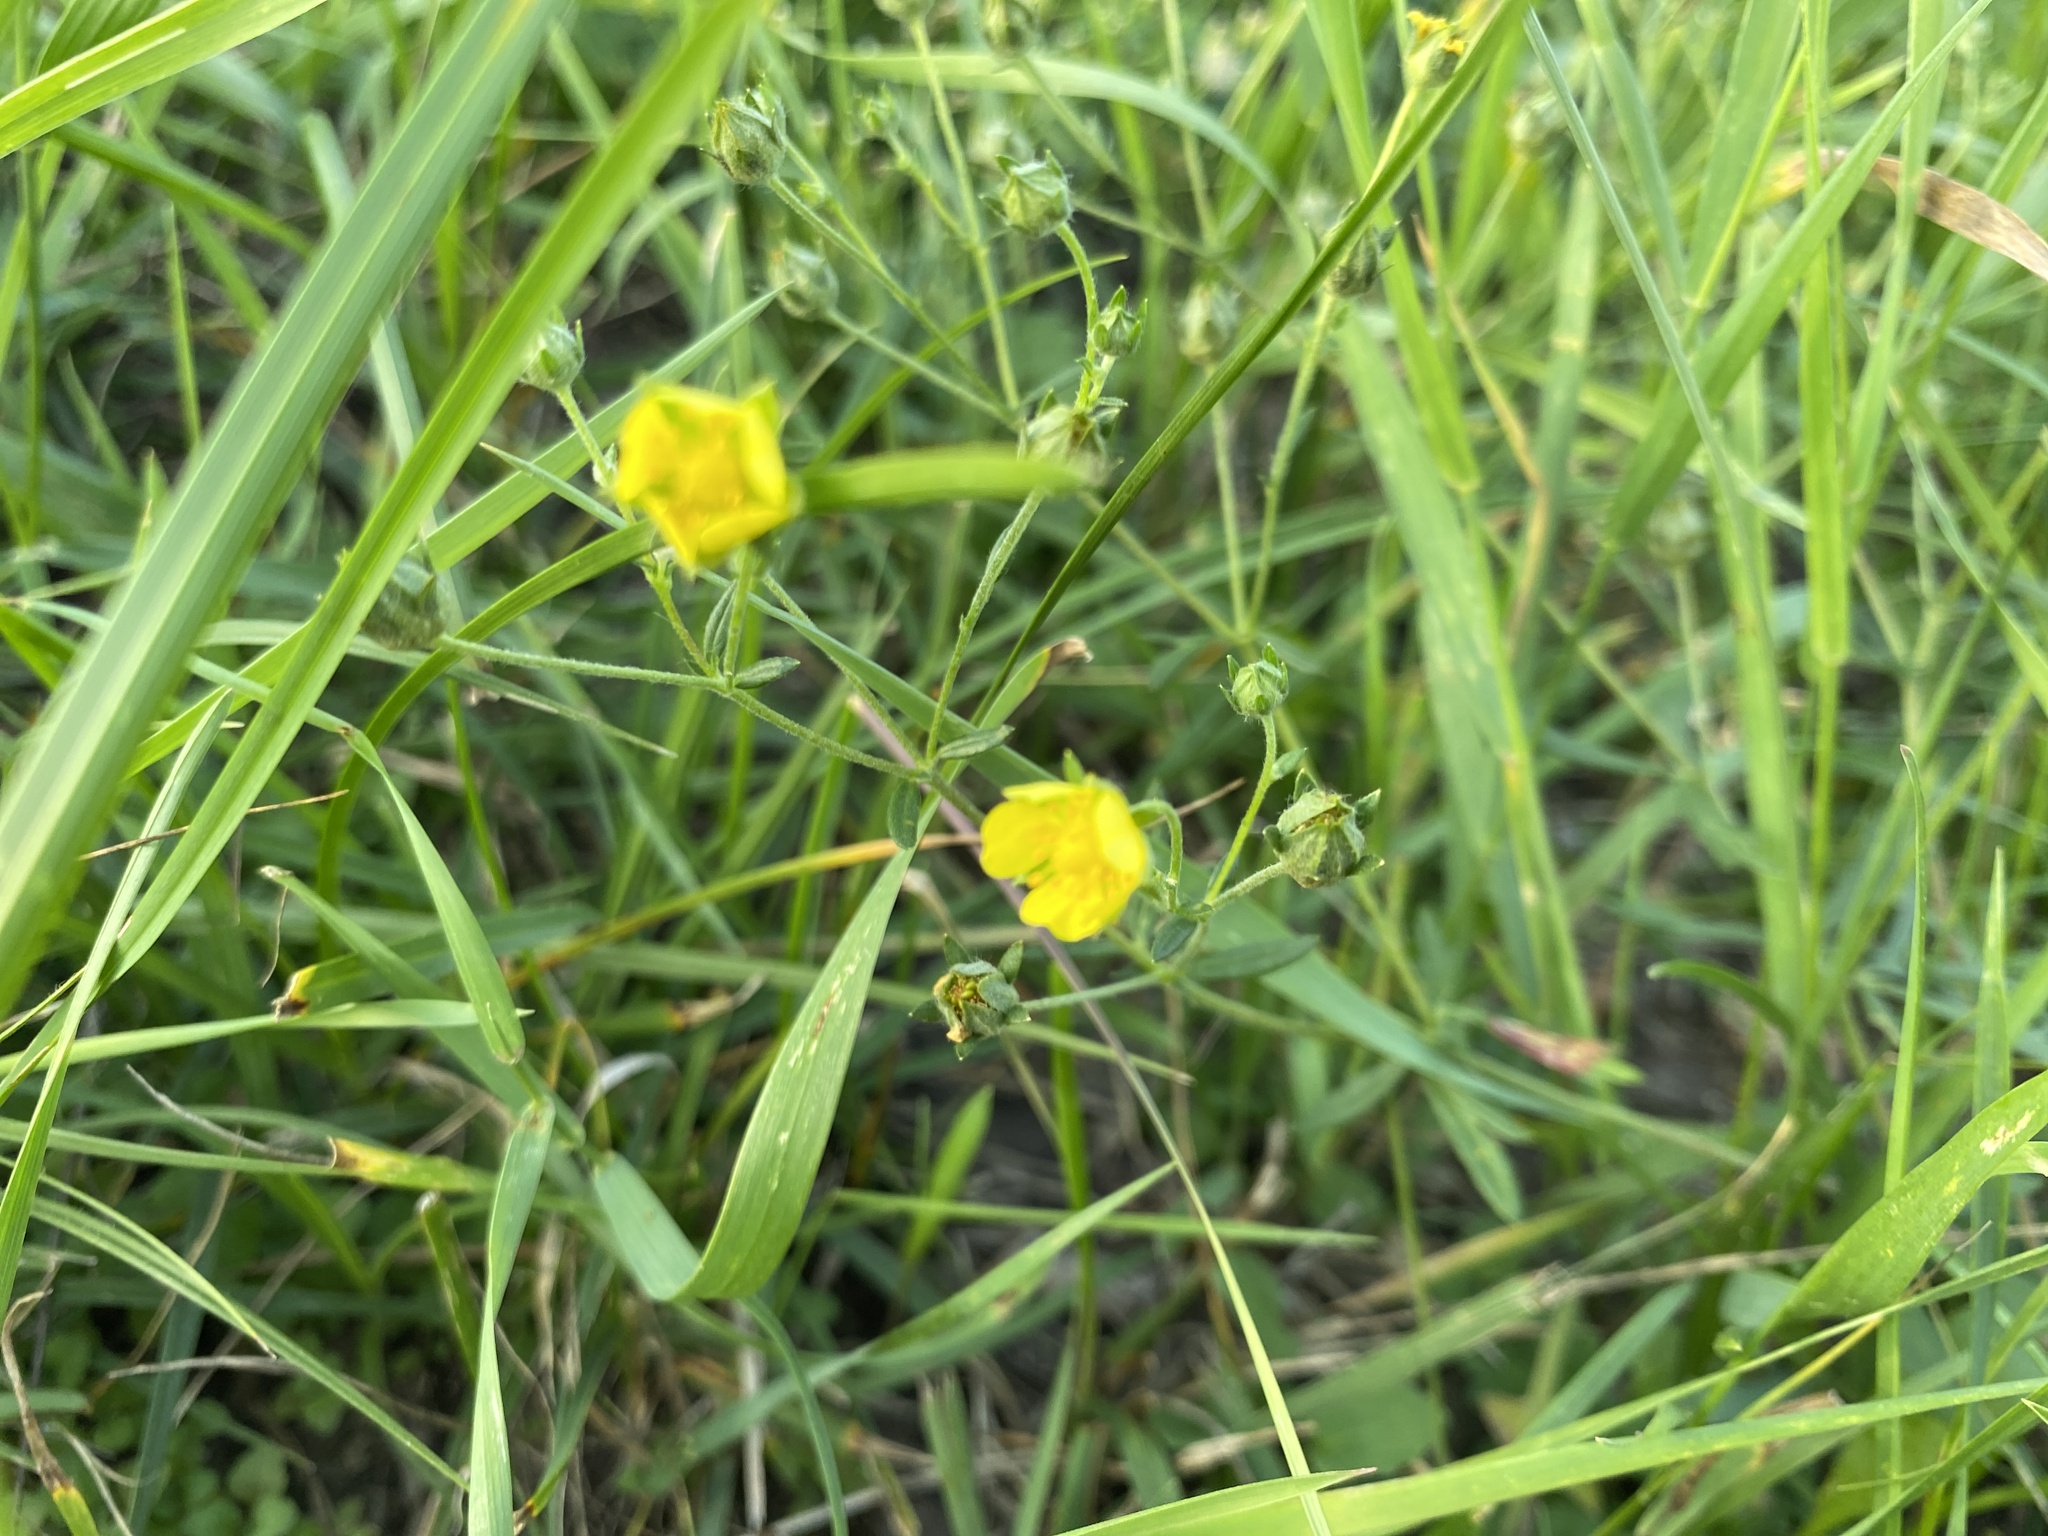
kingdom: Plantae
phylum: Tracheophyta
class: Magnoliopsida
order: Rosales
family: Rosaceae
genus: Potentilla
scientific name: Potentilla argentea
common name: Hoary cinquefoil
